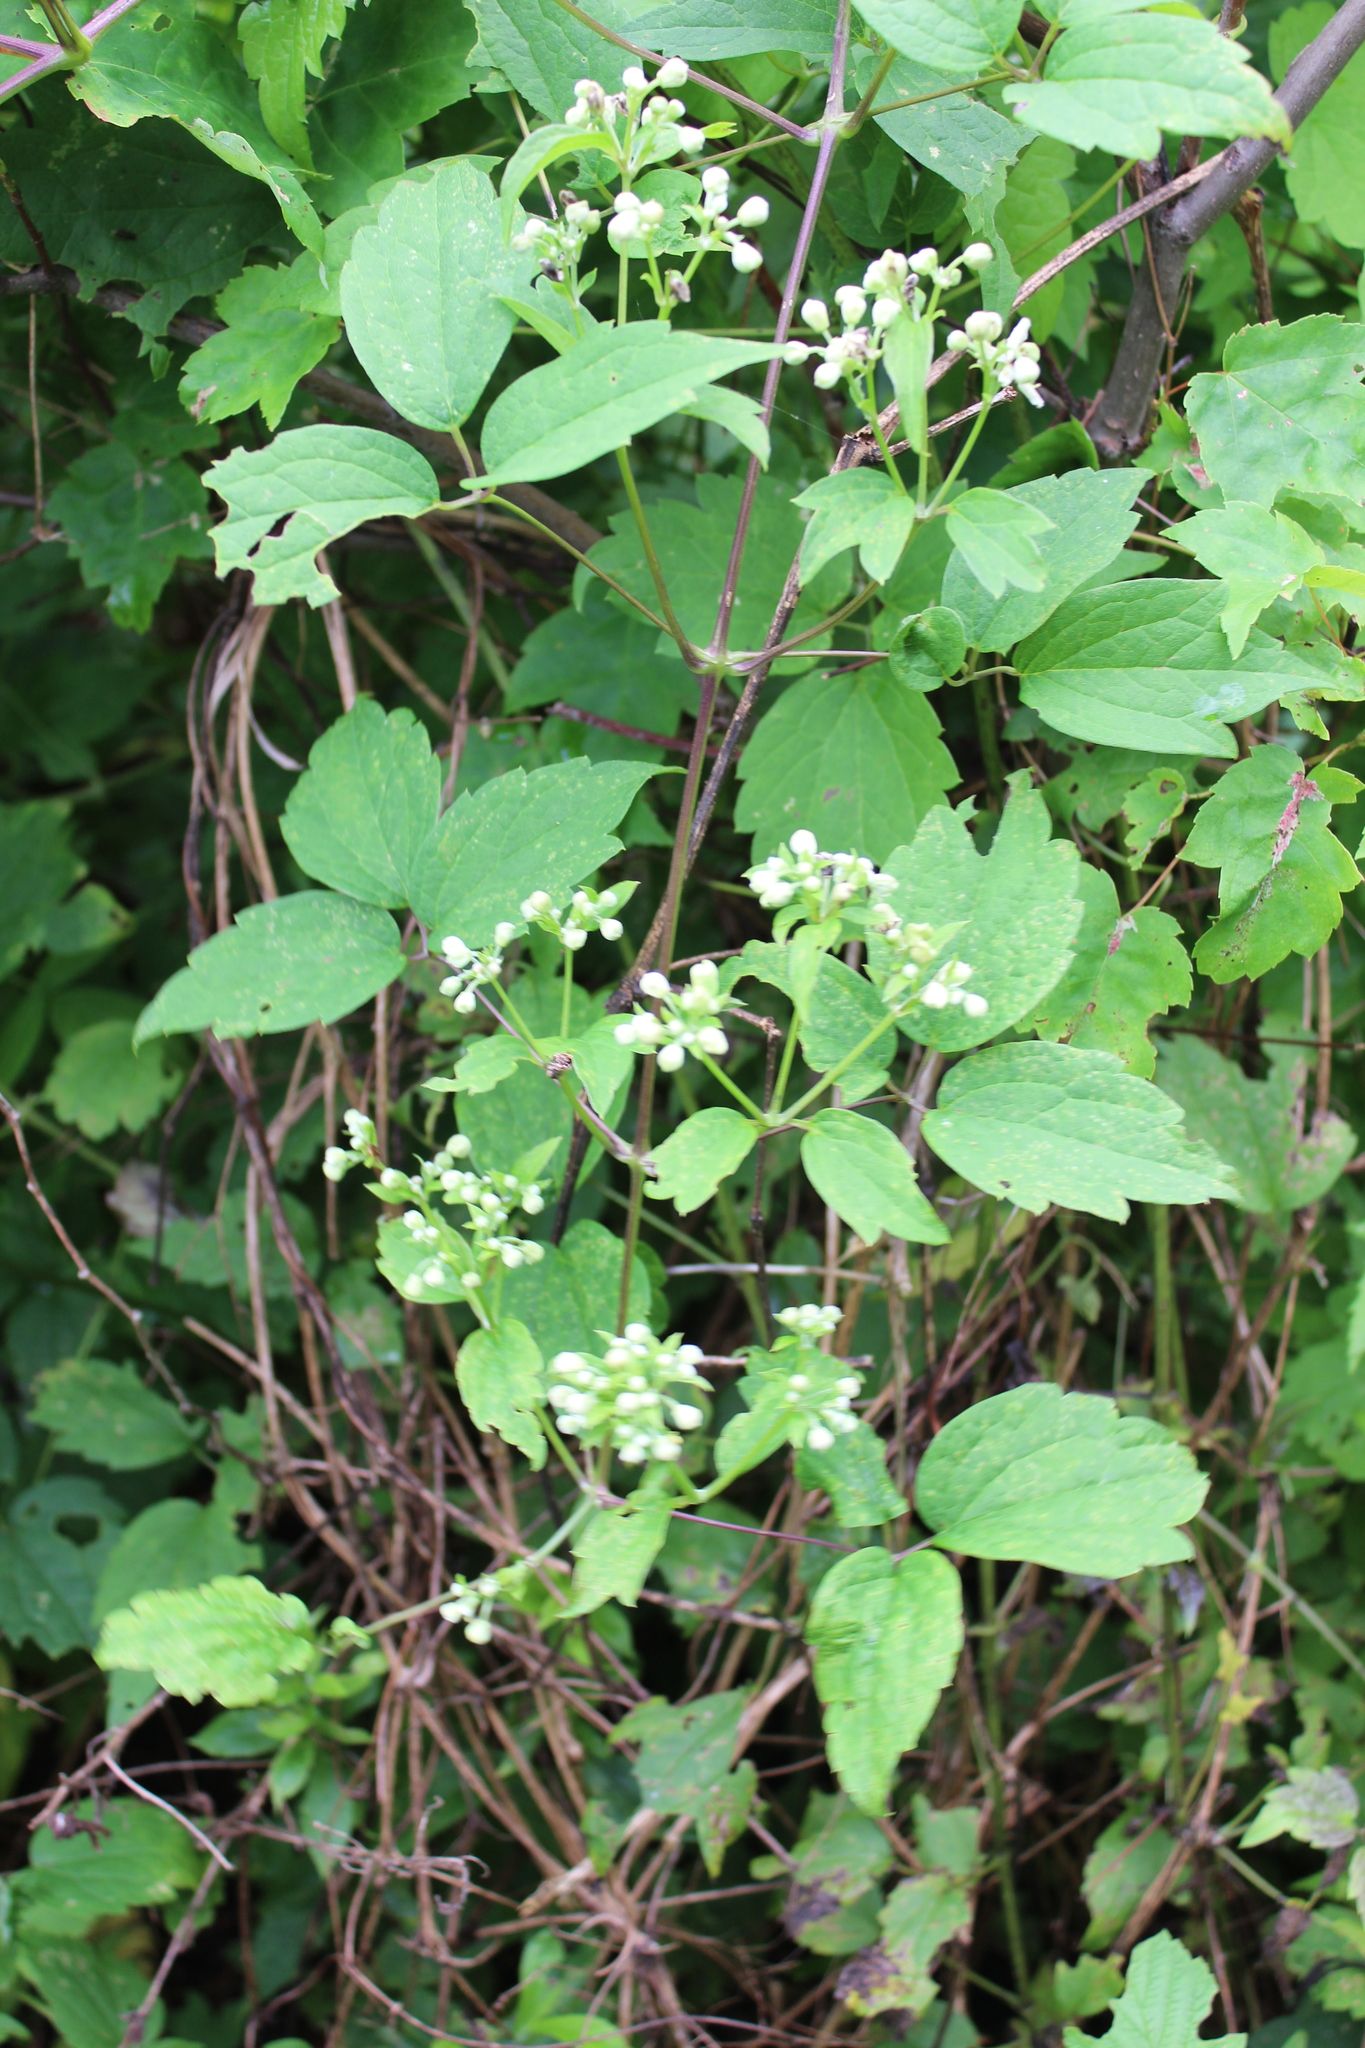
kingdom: Plantae
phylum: Tracheophyta
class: Magnoliopsida
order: Ranunculales
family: Ranunculaceae
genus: Clematis
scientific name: Clematis virginiana
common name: Virgin's-bower
